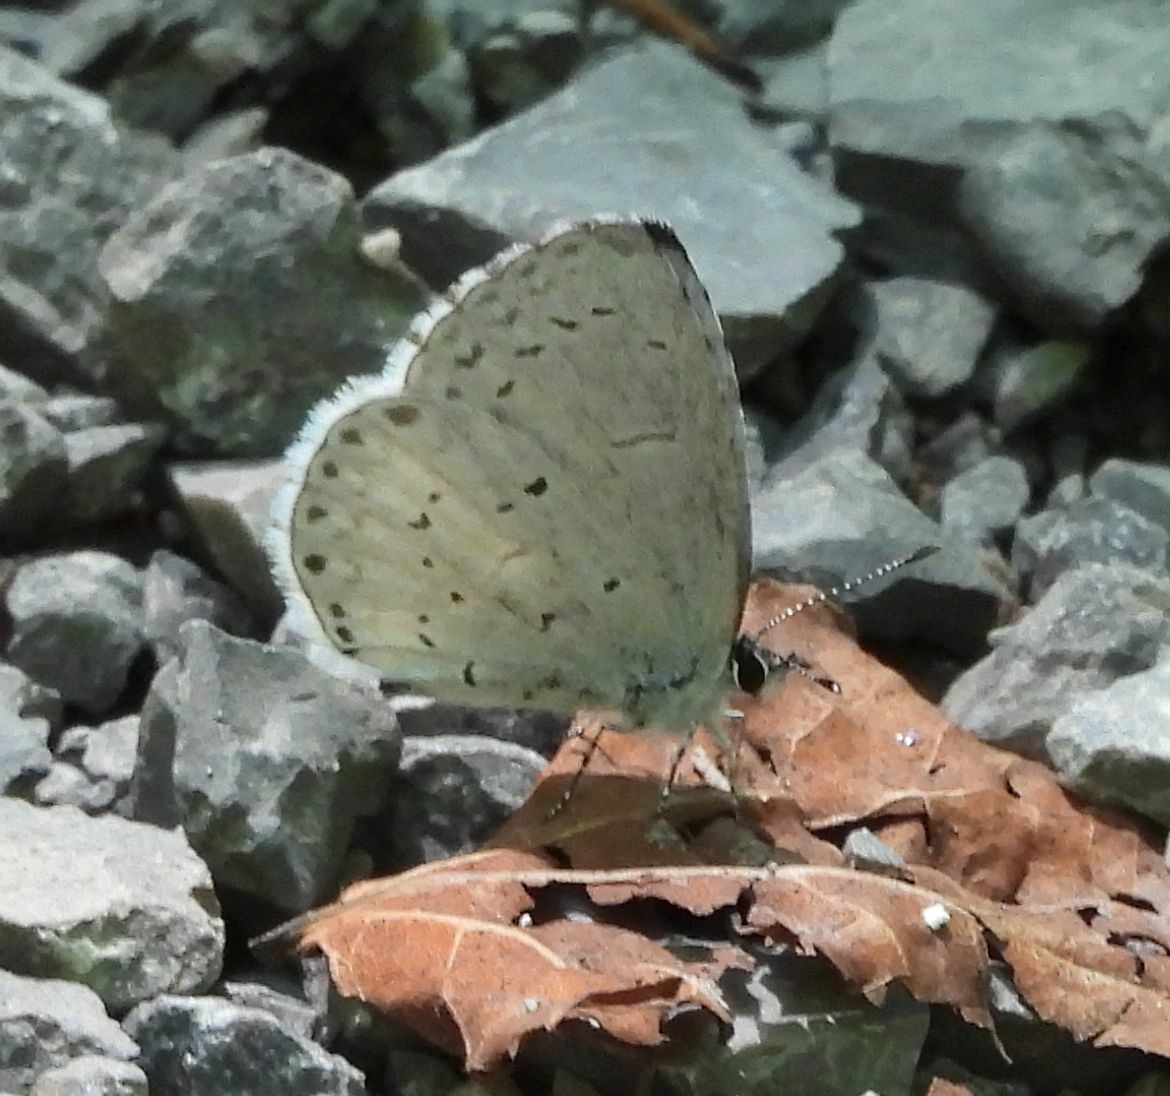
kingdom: Animalia
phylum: Arthropoda
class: Insecta
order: Lepidoptera
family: Lycaenidae
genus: Celastrina
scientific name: Celastrina lucia
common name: Lucia azure
